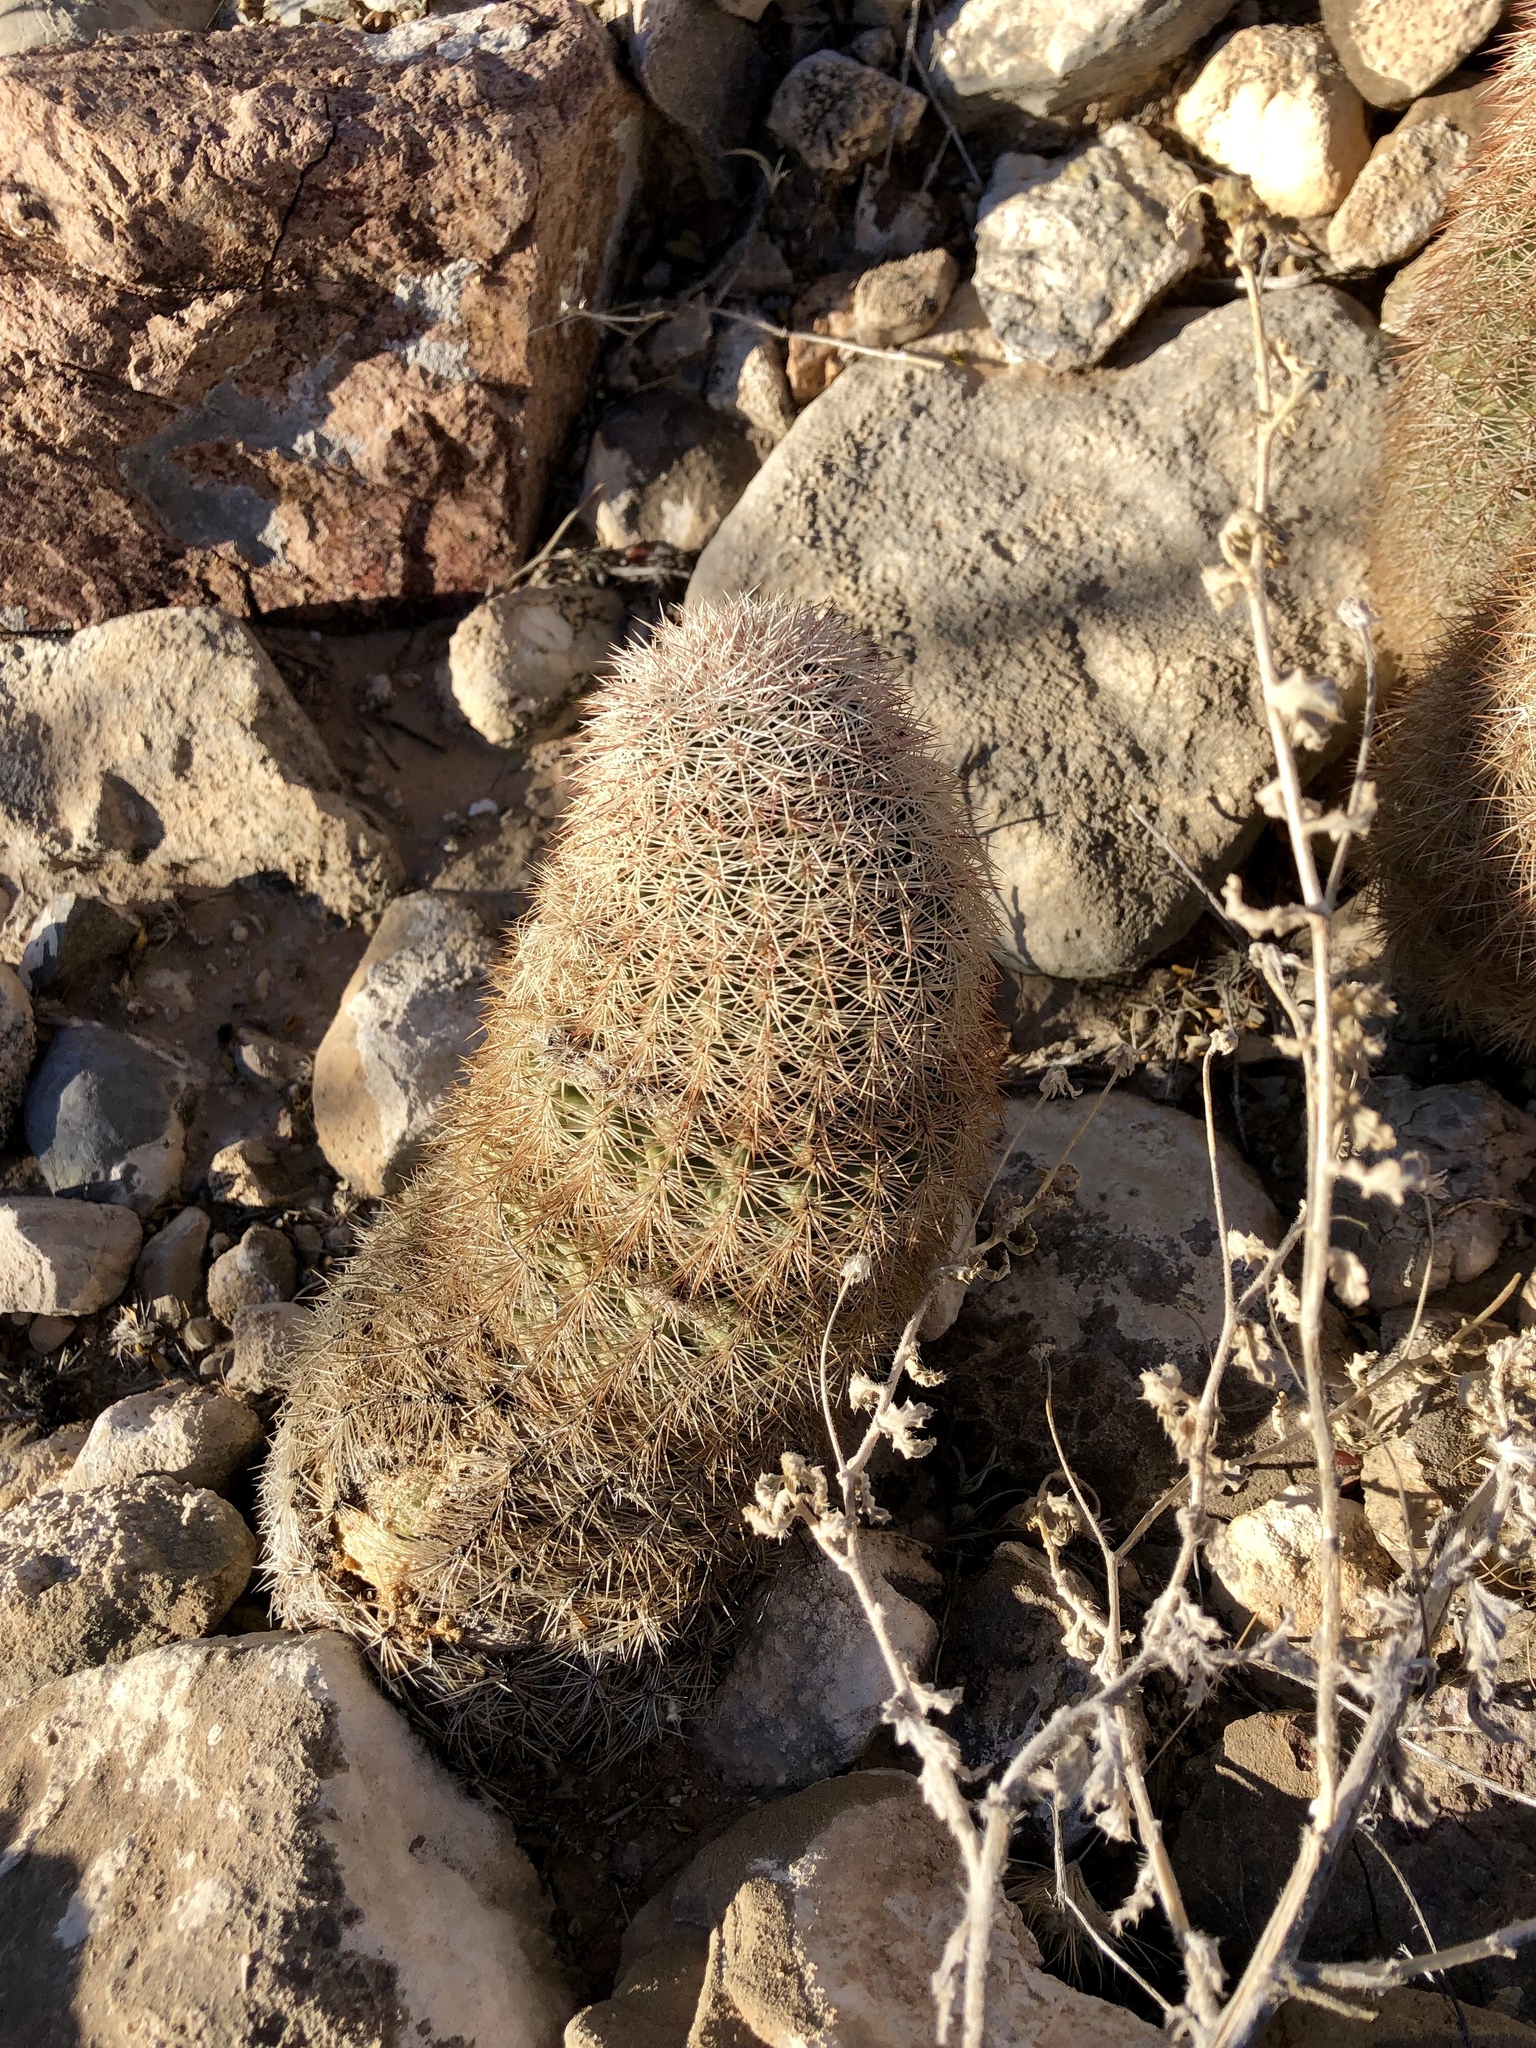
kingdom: Plantae
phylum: Tracheophyta
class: Magnoliopsida
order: Caryophyllales
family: Cactaceae
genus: Echinocereus
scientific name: Echinocereus dasyacanthus
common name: Spiny hedgehog cactus
